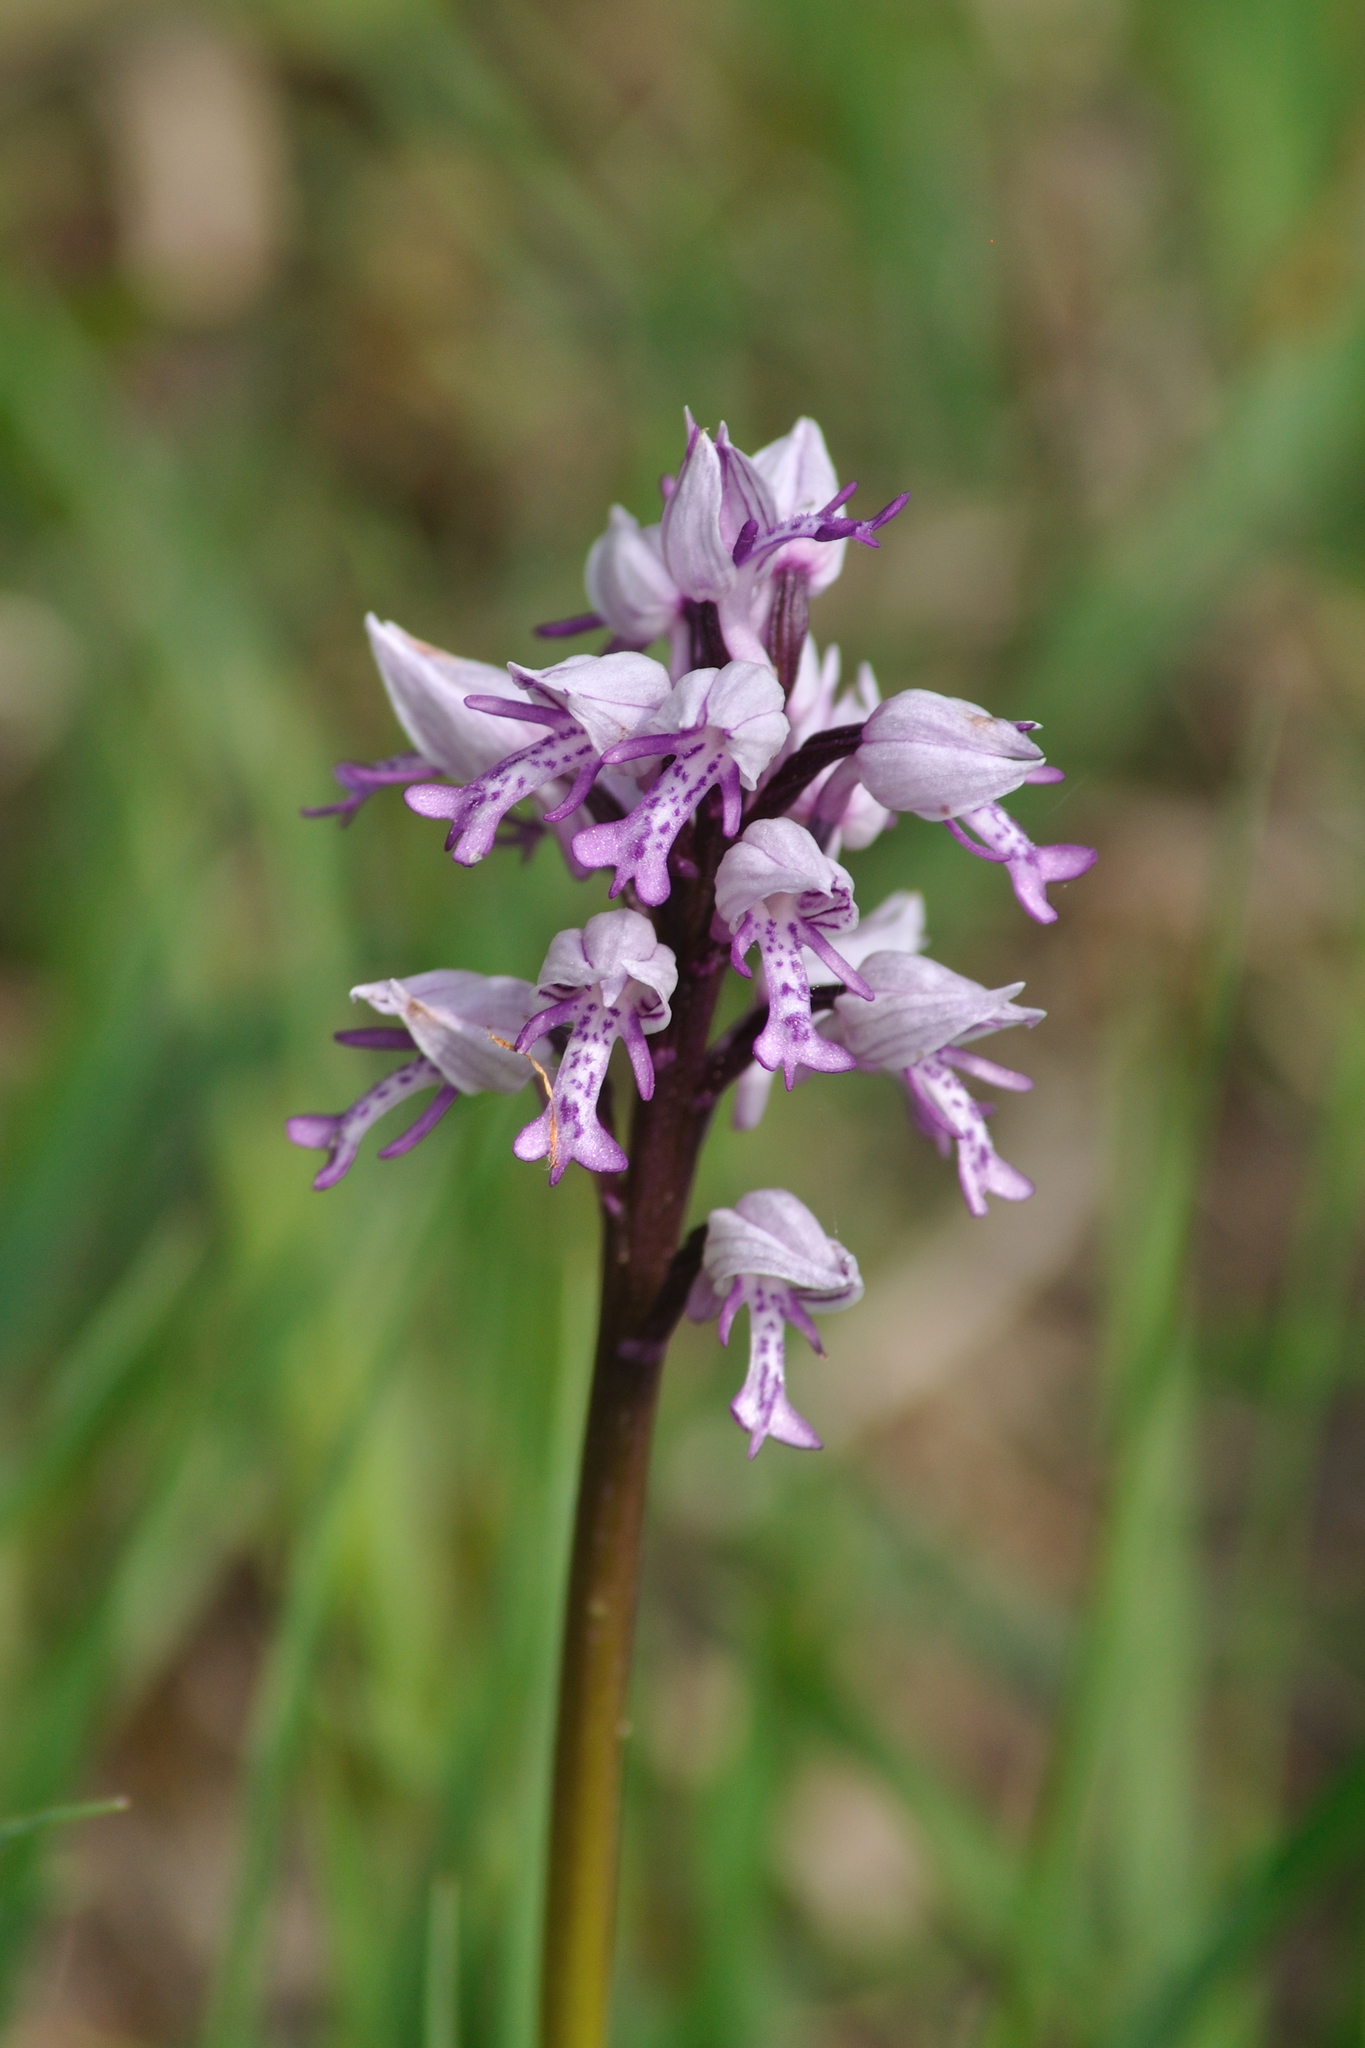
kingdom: Plantae
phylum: Tracheophyta
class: Liliopsida
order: Asparagales
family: Orchidaceae
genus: Orchis
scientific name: Orchis militaris
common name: Military orchid
